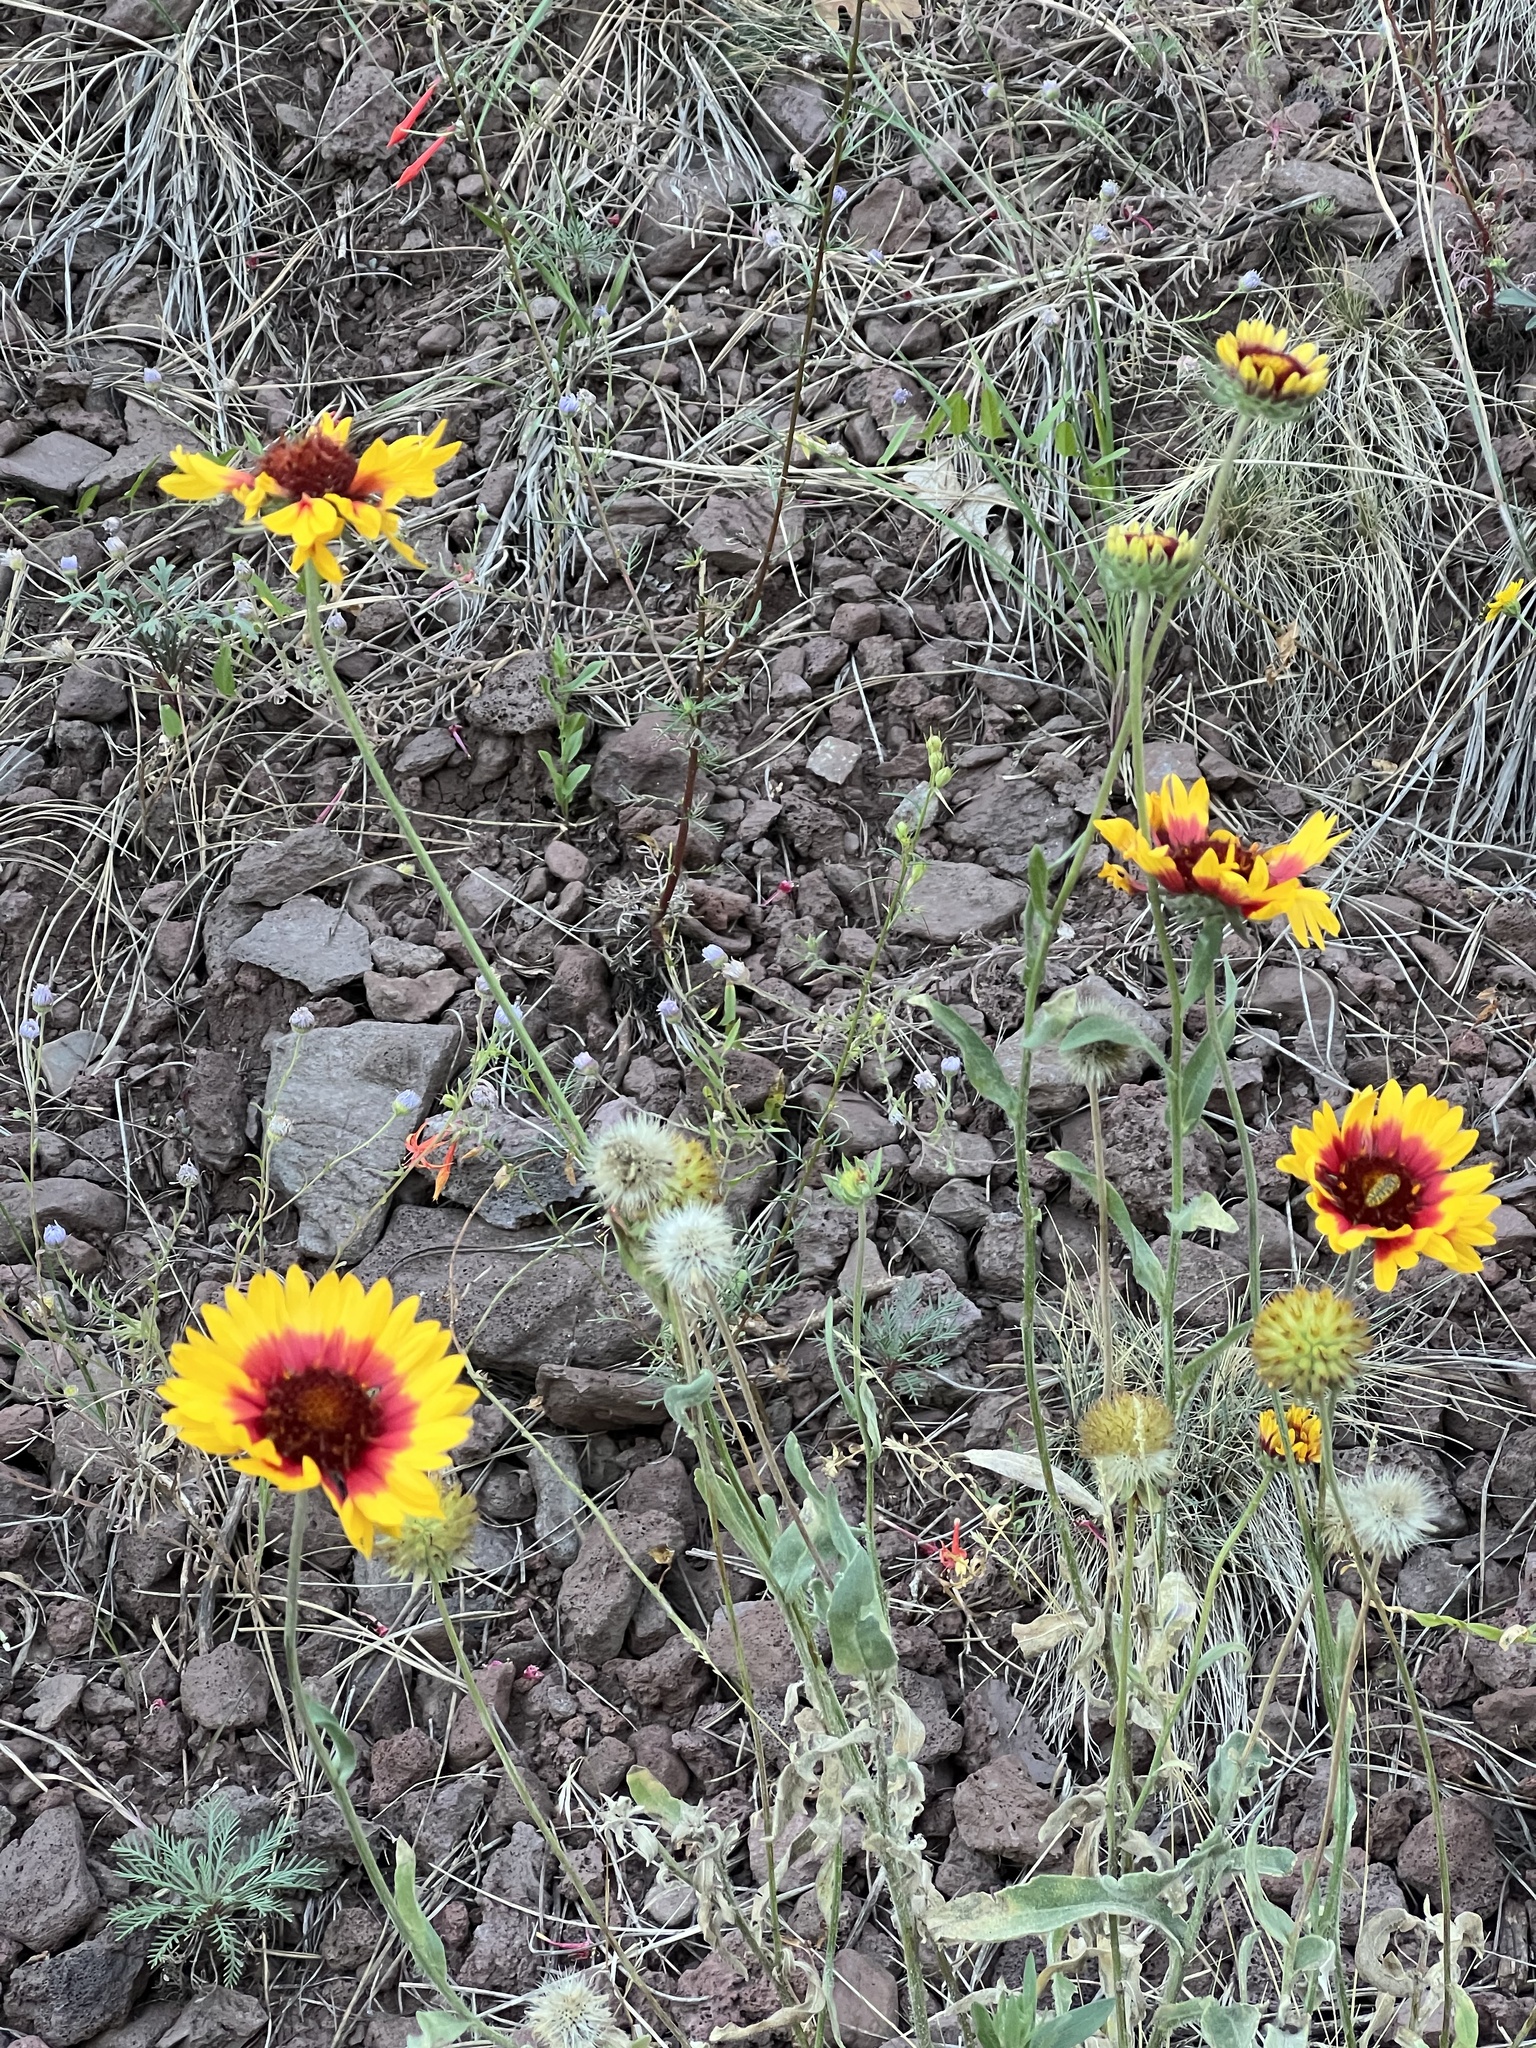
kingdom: Plantae
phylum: Tracheophyta
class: Magnoliopsida
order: Asterales
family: Asteraceae
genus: Gaillardia
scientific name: Gaillardia pulchella
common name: Firewheel
